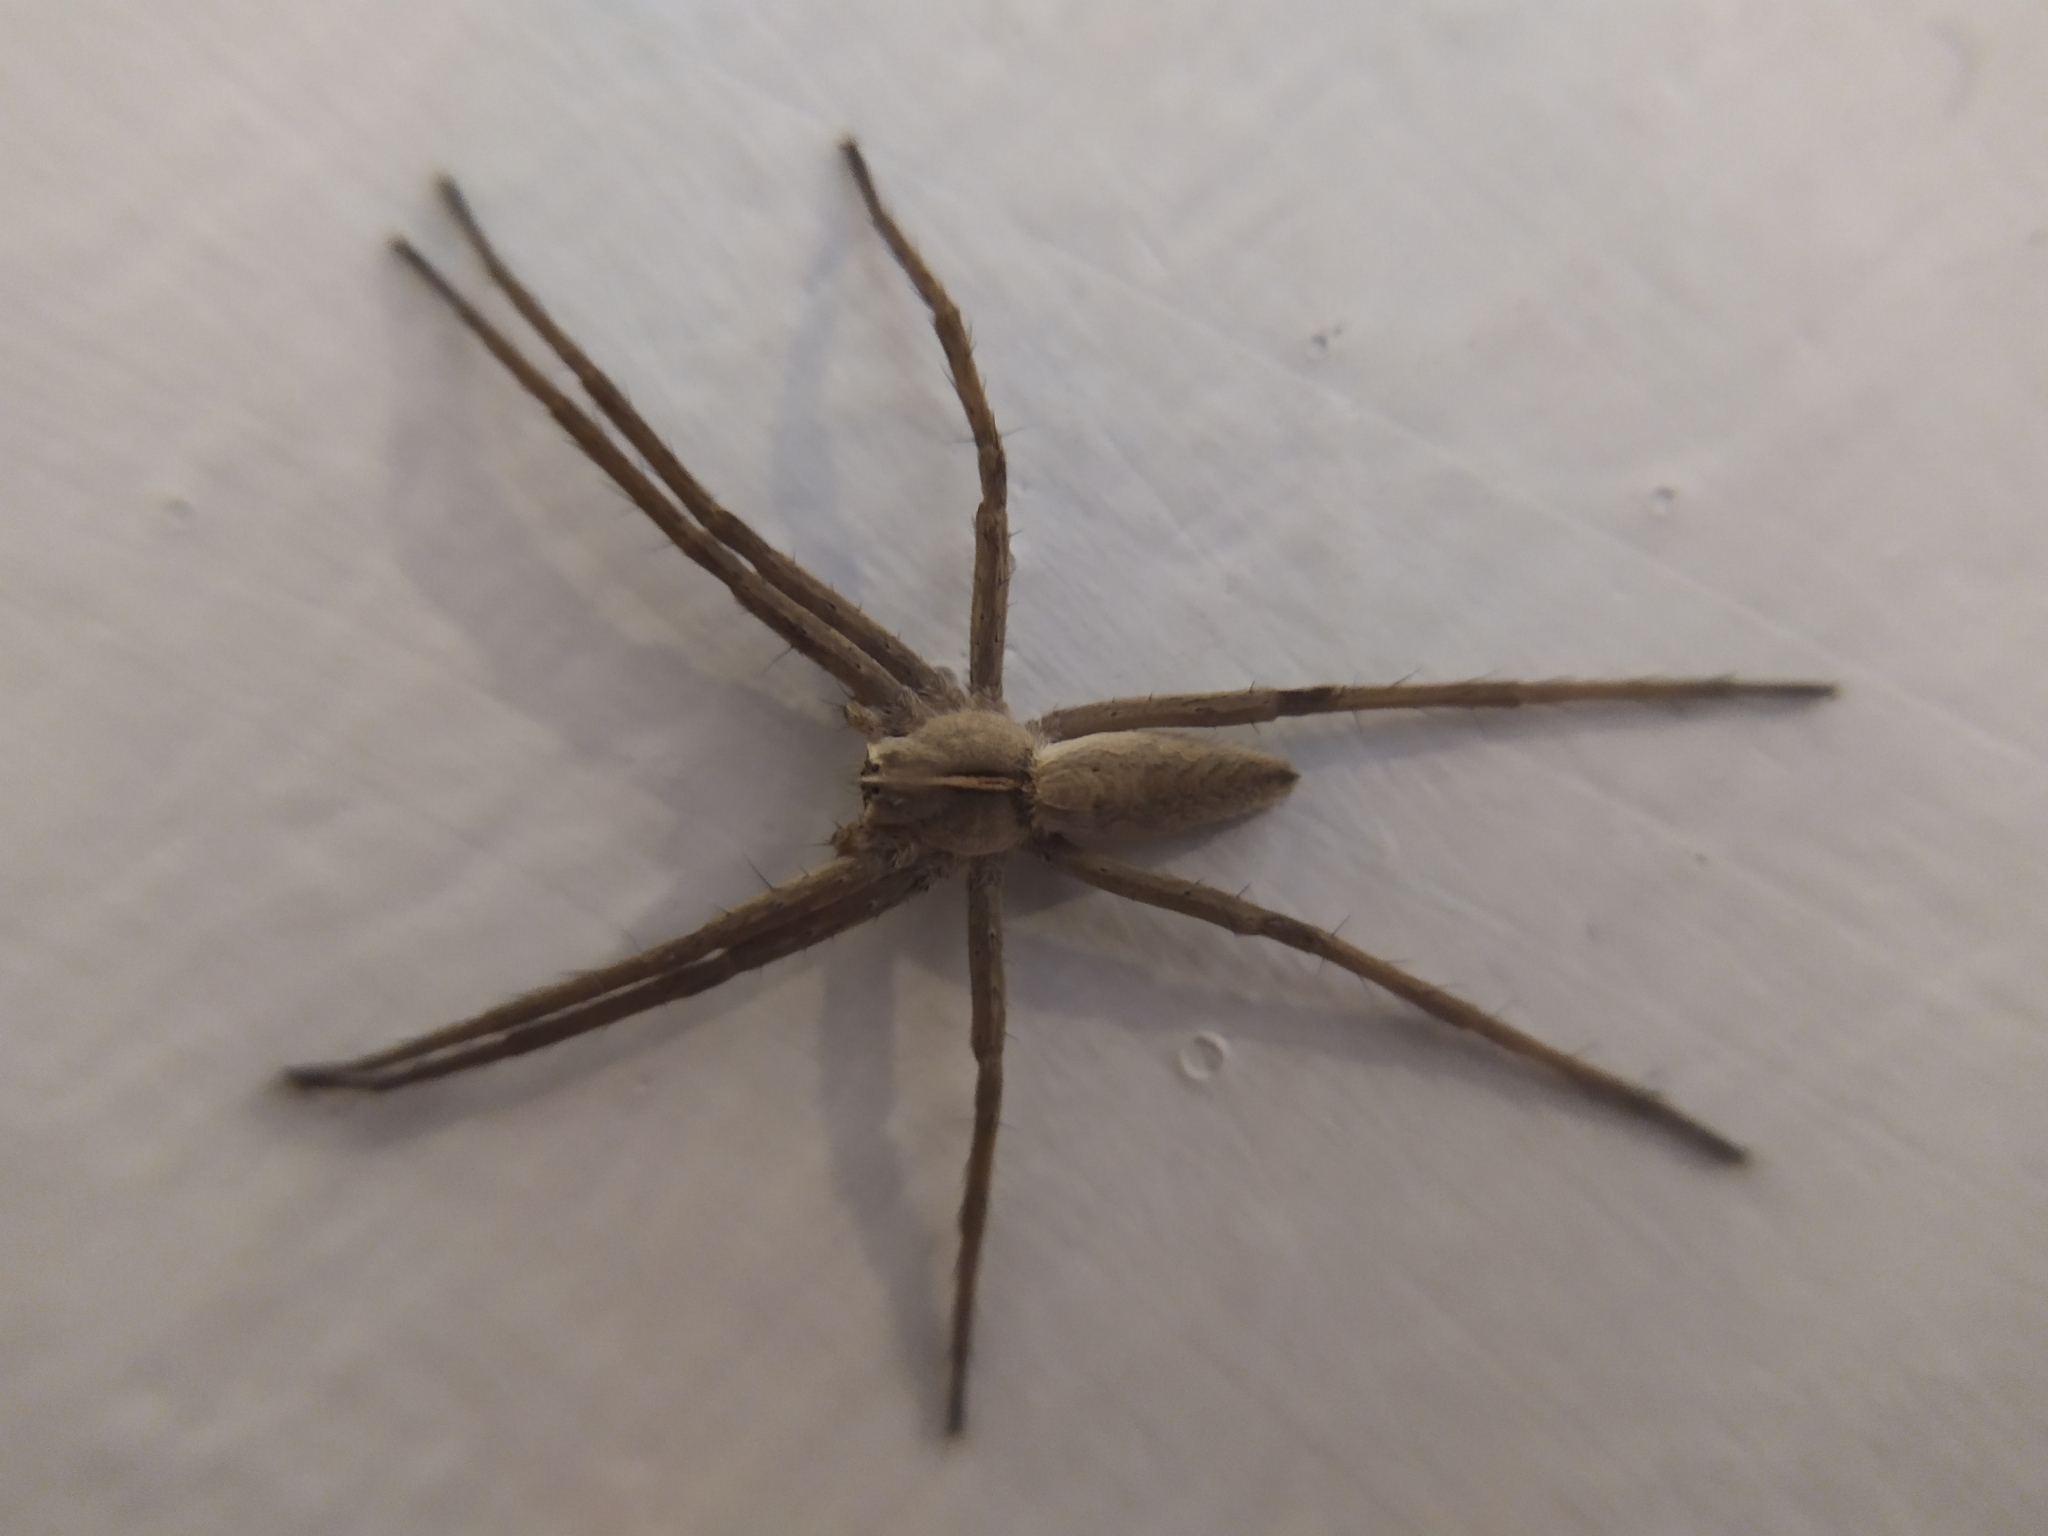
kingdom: Animalia
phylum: Arthropoda
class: Arachnida
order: Araneae
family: Pisauridae
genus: Pisaura
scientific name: Pisaura mirabilis
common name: Tent spider
